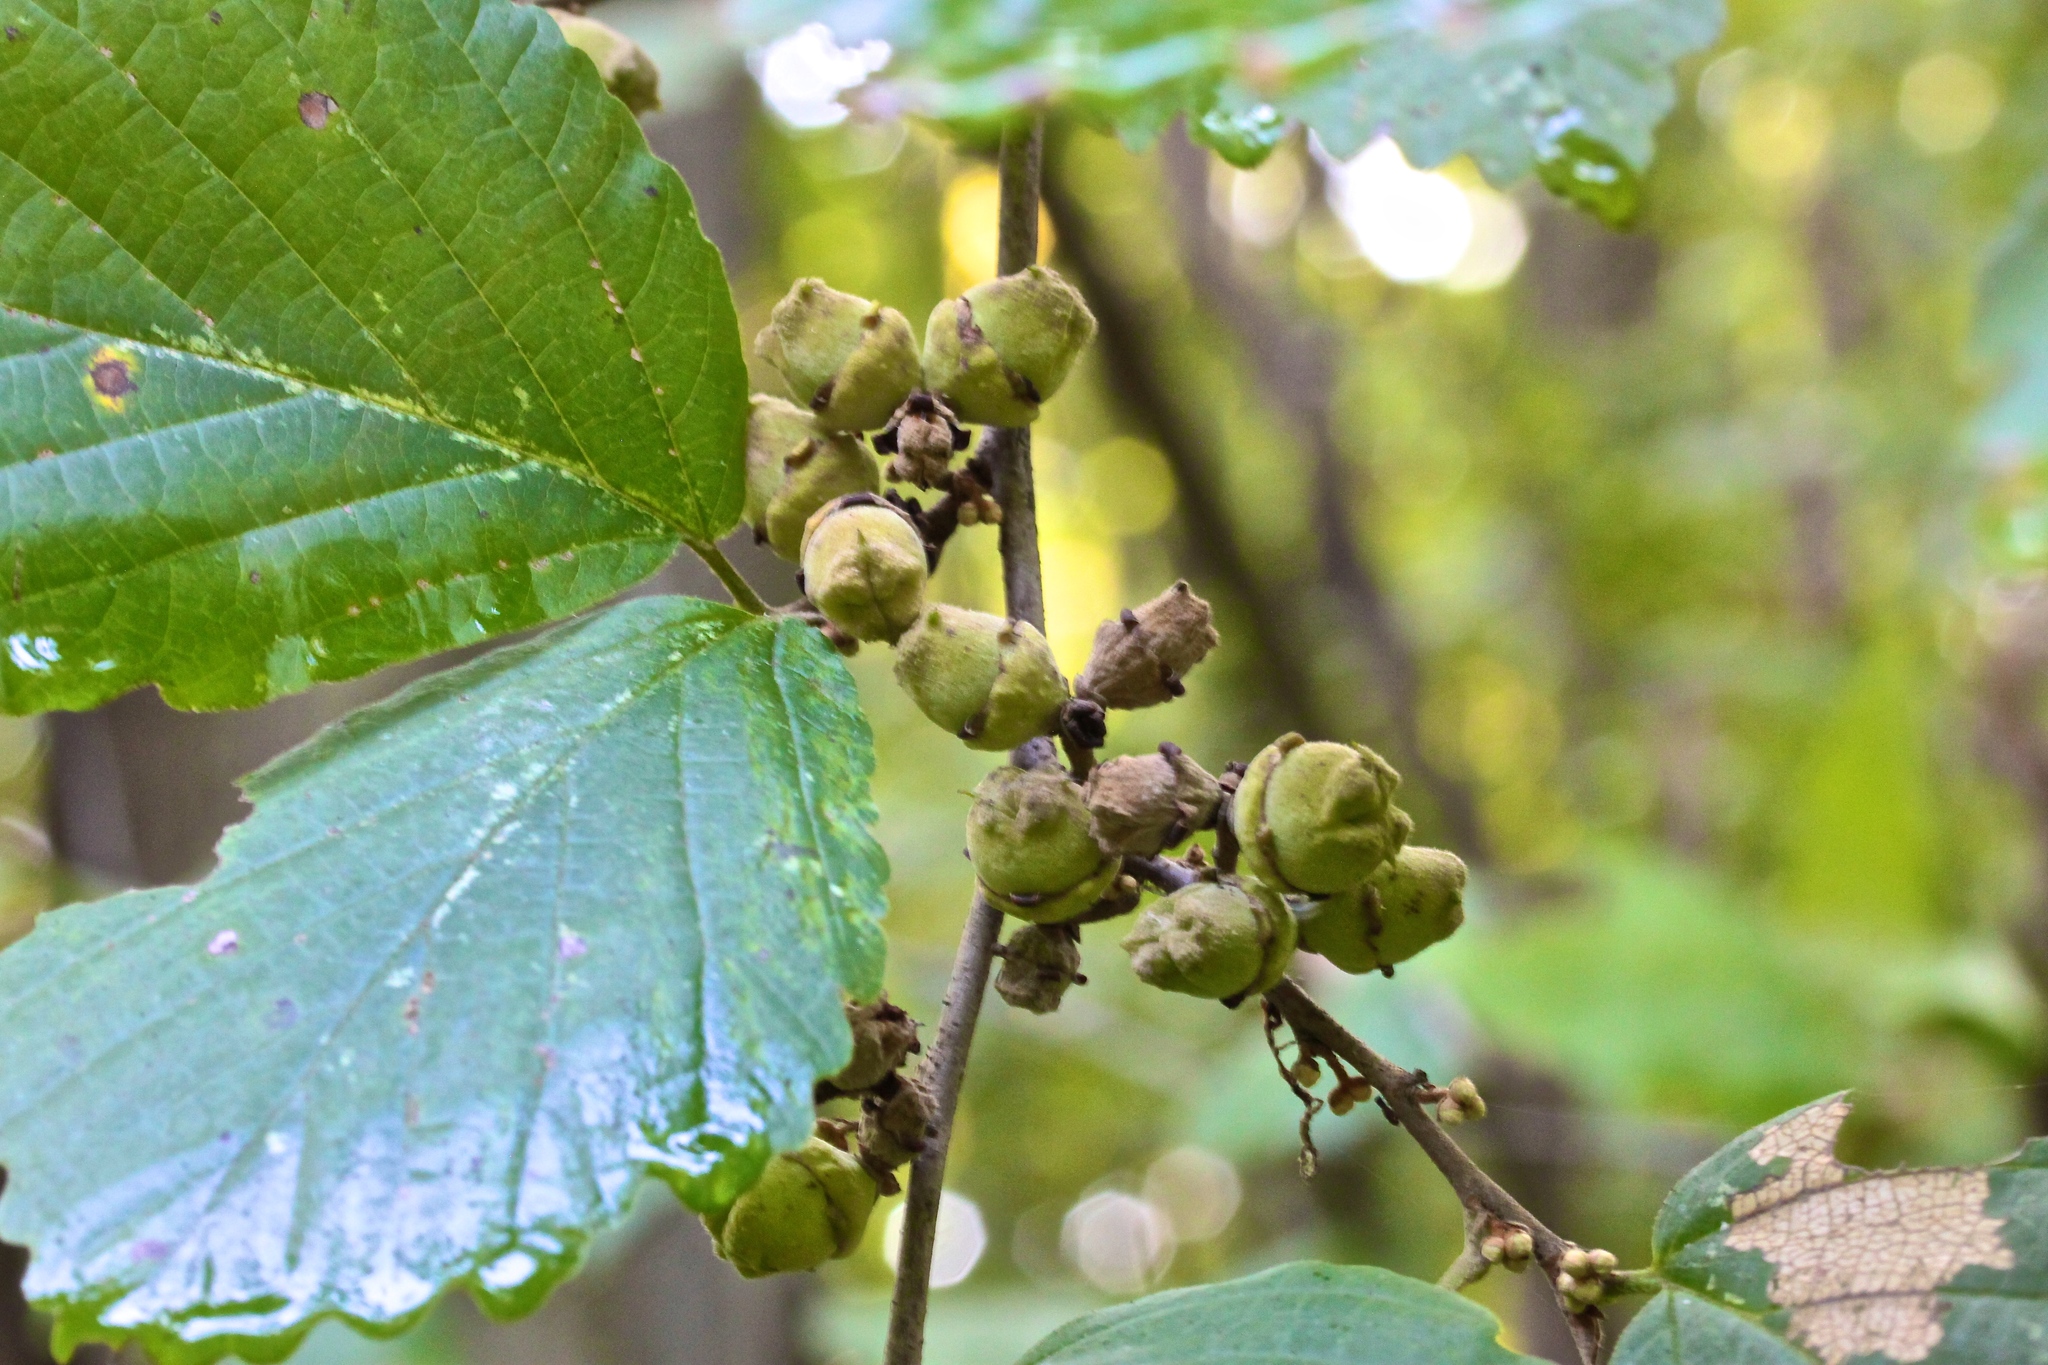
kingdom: Plantae
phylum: Tracheophyta
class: Magnoliopsida
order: Saxifragales
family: Hamamelidaceae
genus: Hamamelis
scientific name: Hamamelis virginiana
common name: Witch-hazel
